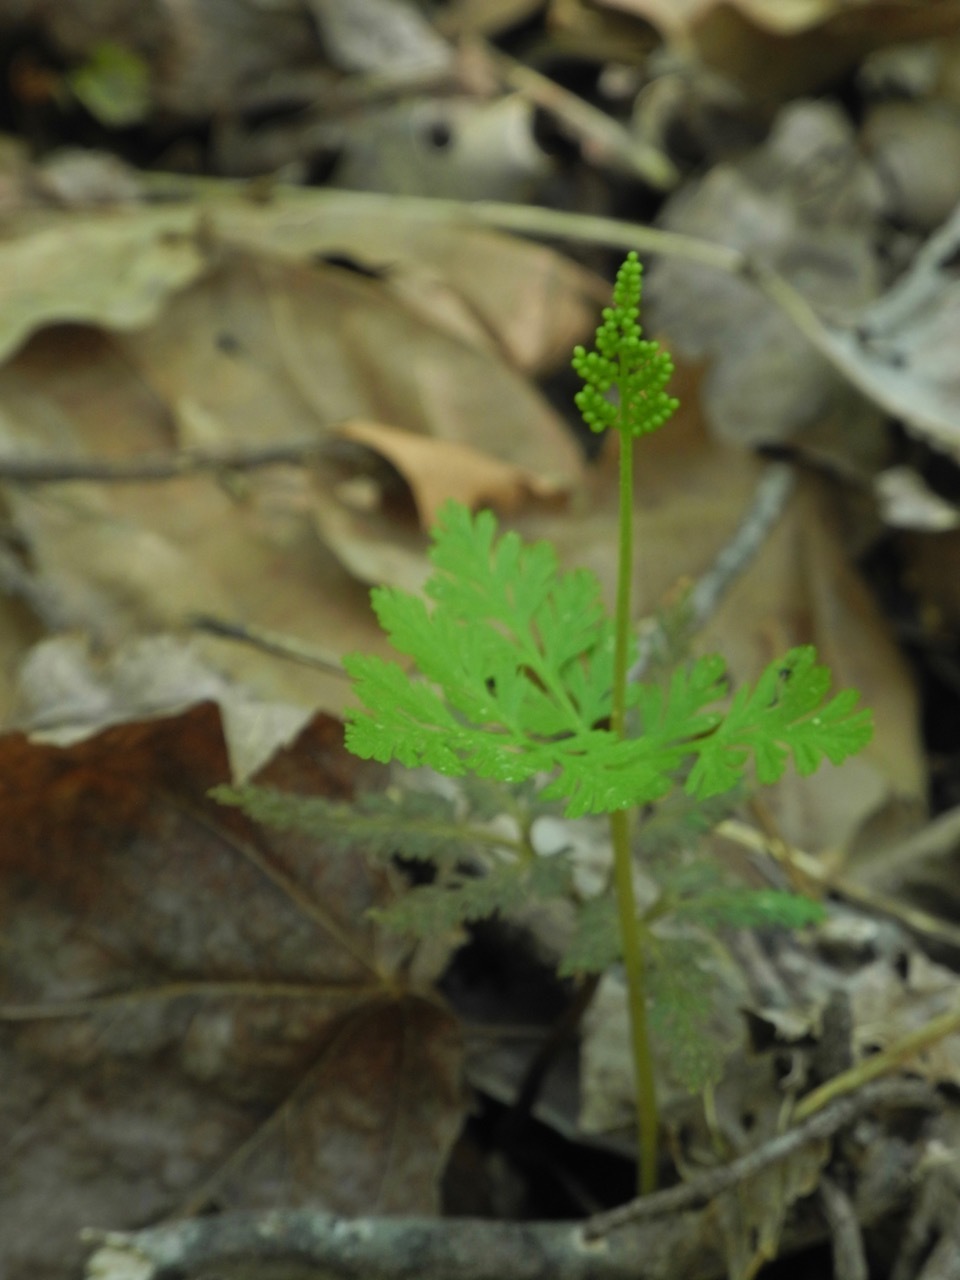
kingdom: Plantae
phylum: Tracheophyta
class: Polypodiopsida
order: Ophioglossales
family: Ophioglossaceae
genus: Botrypus
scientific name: Botrypus virginianus
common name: Common grapefern
